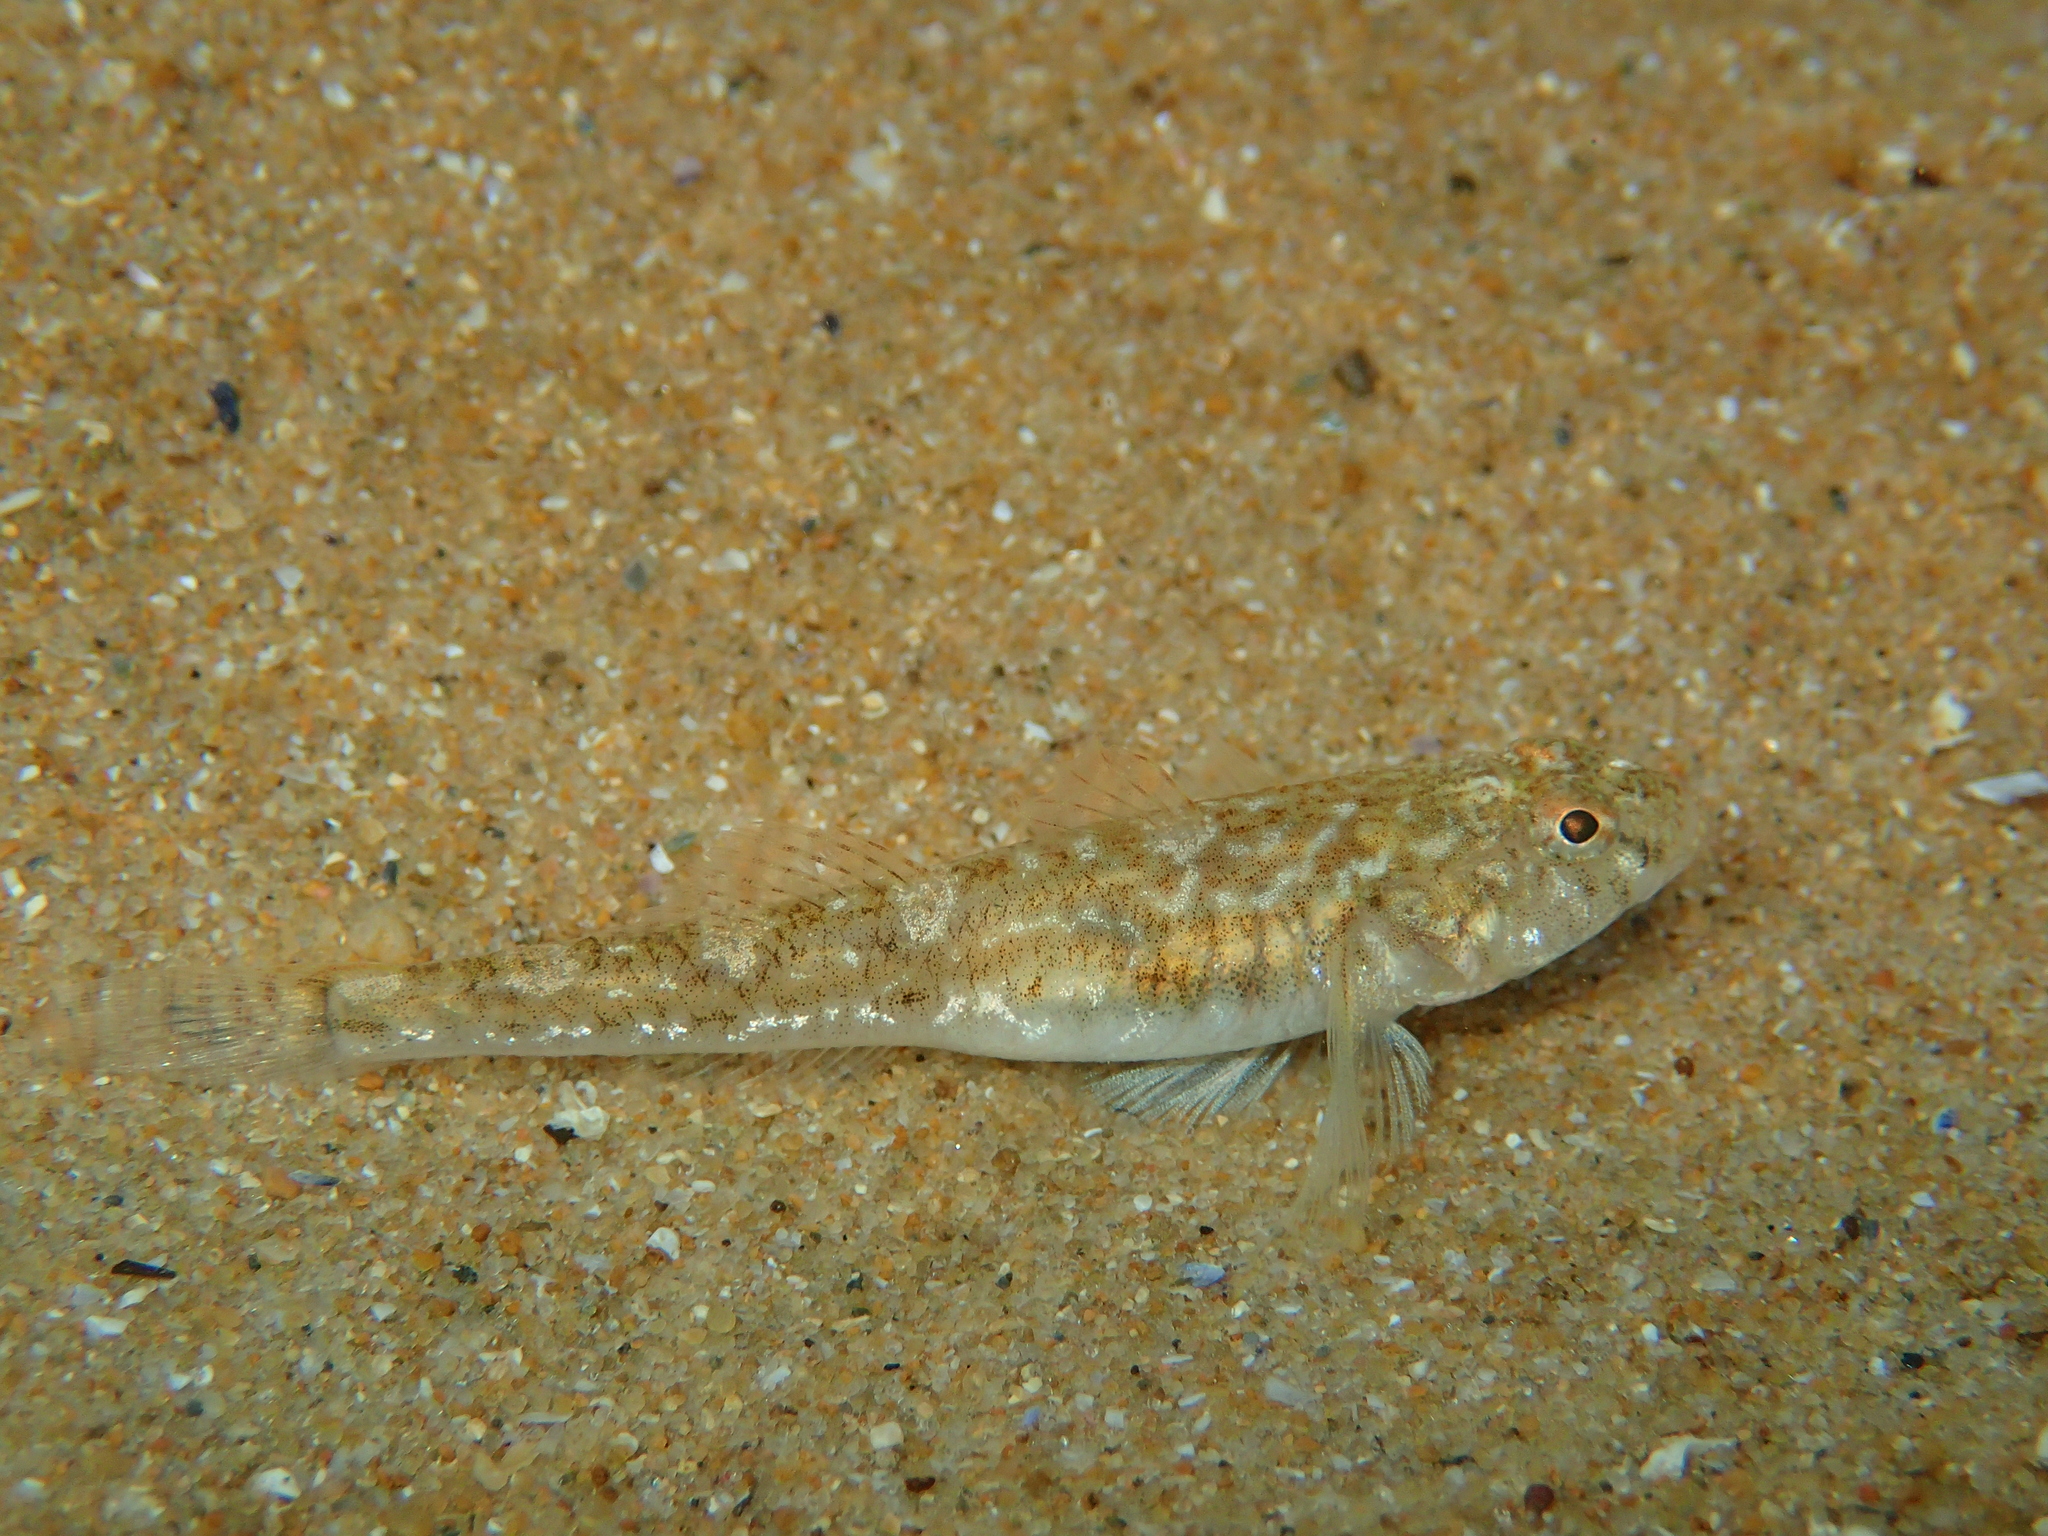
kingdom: Animalia
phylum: Chordata
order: Perciformes
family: Gobiidae
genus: Pomatoschistus
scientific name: Pomatoschistus microps
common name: Common goby
